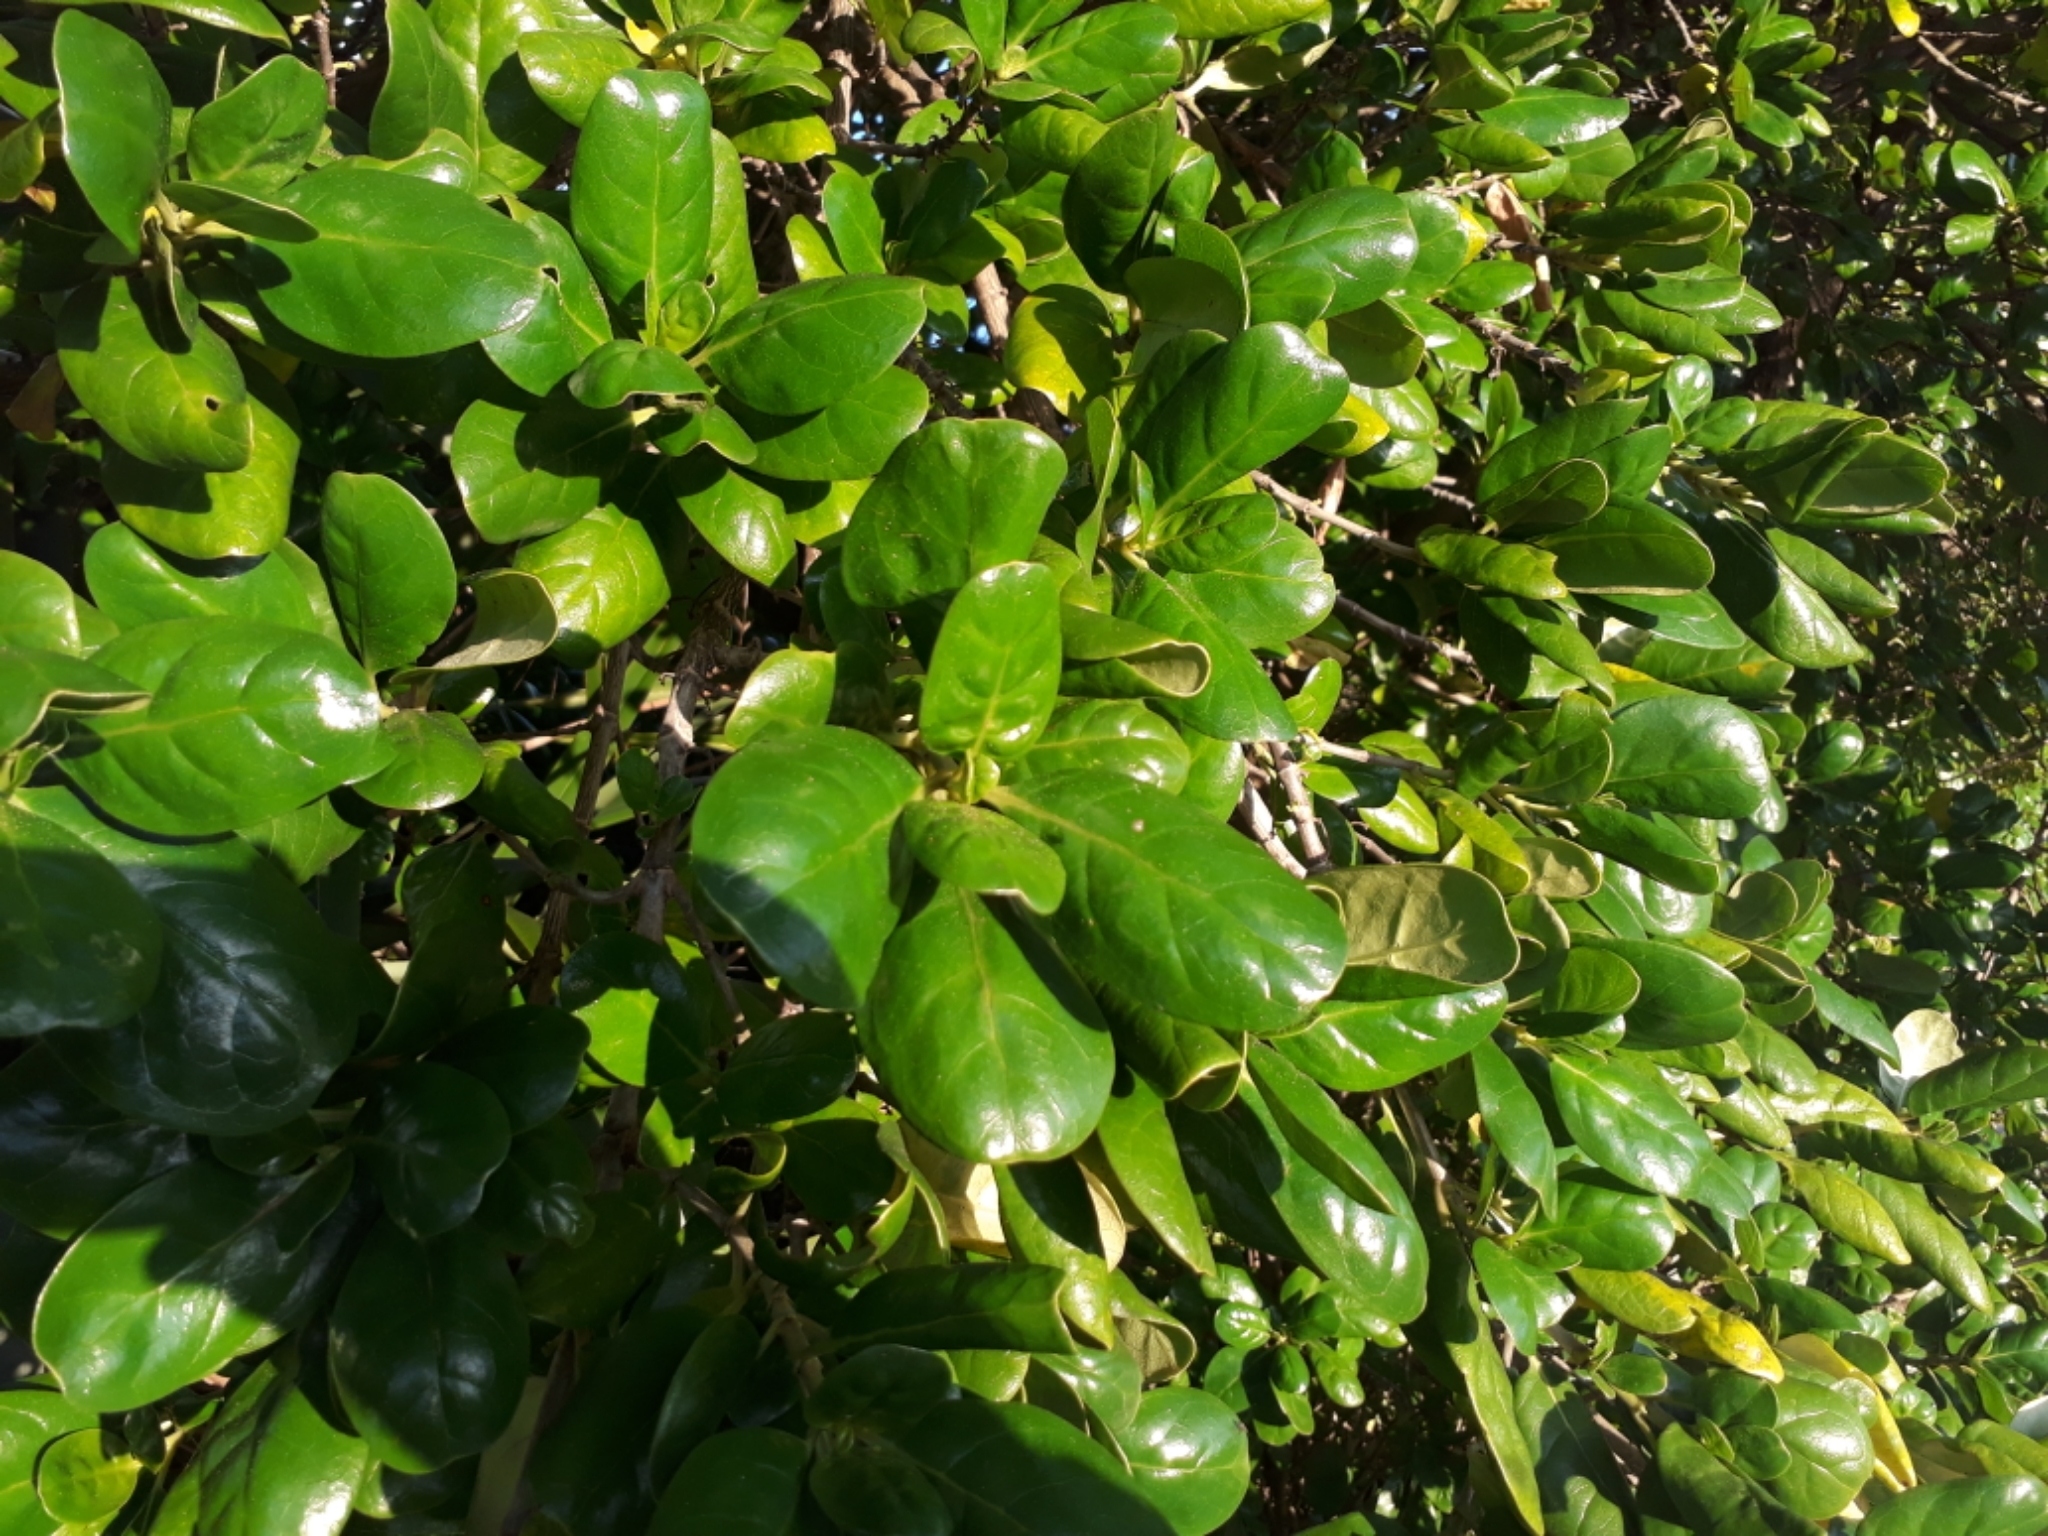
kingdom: Plantae
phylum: Tracheophyta
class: Magnoliopsida
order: Gentianales
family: Rubiaceae
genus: Coprosma
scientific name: Coprosma repens
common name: Tree bedstraw
